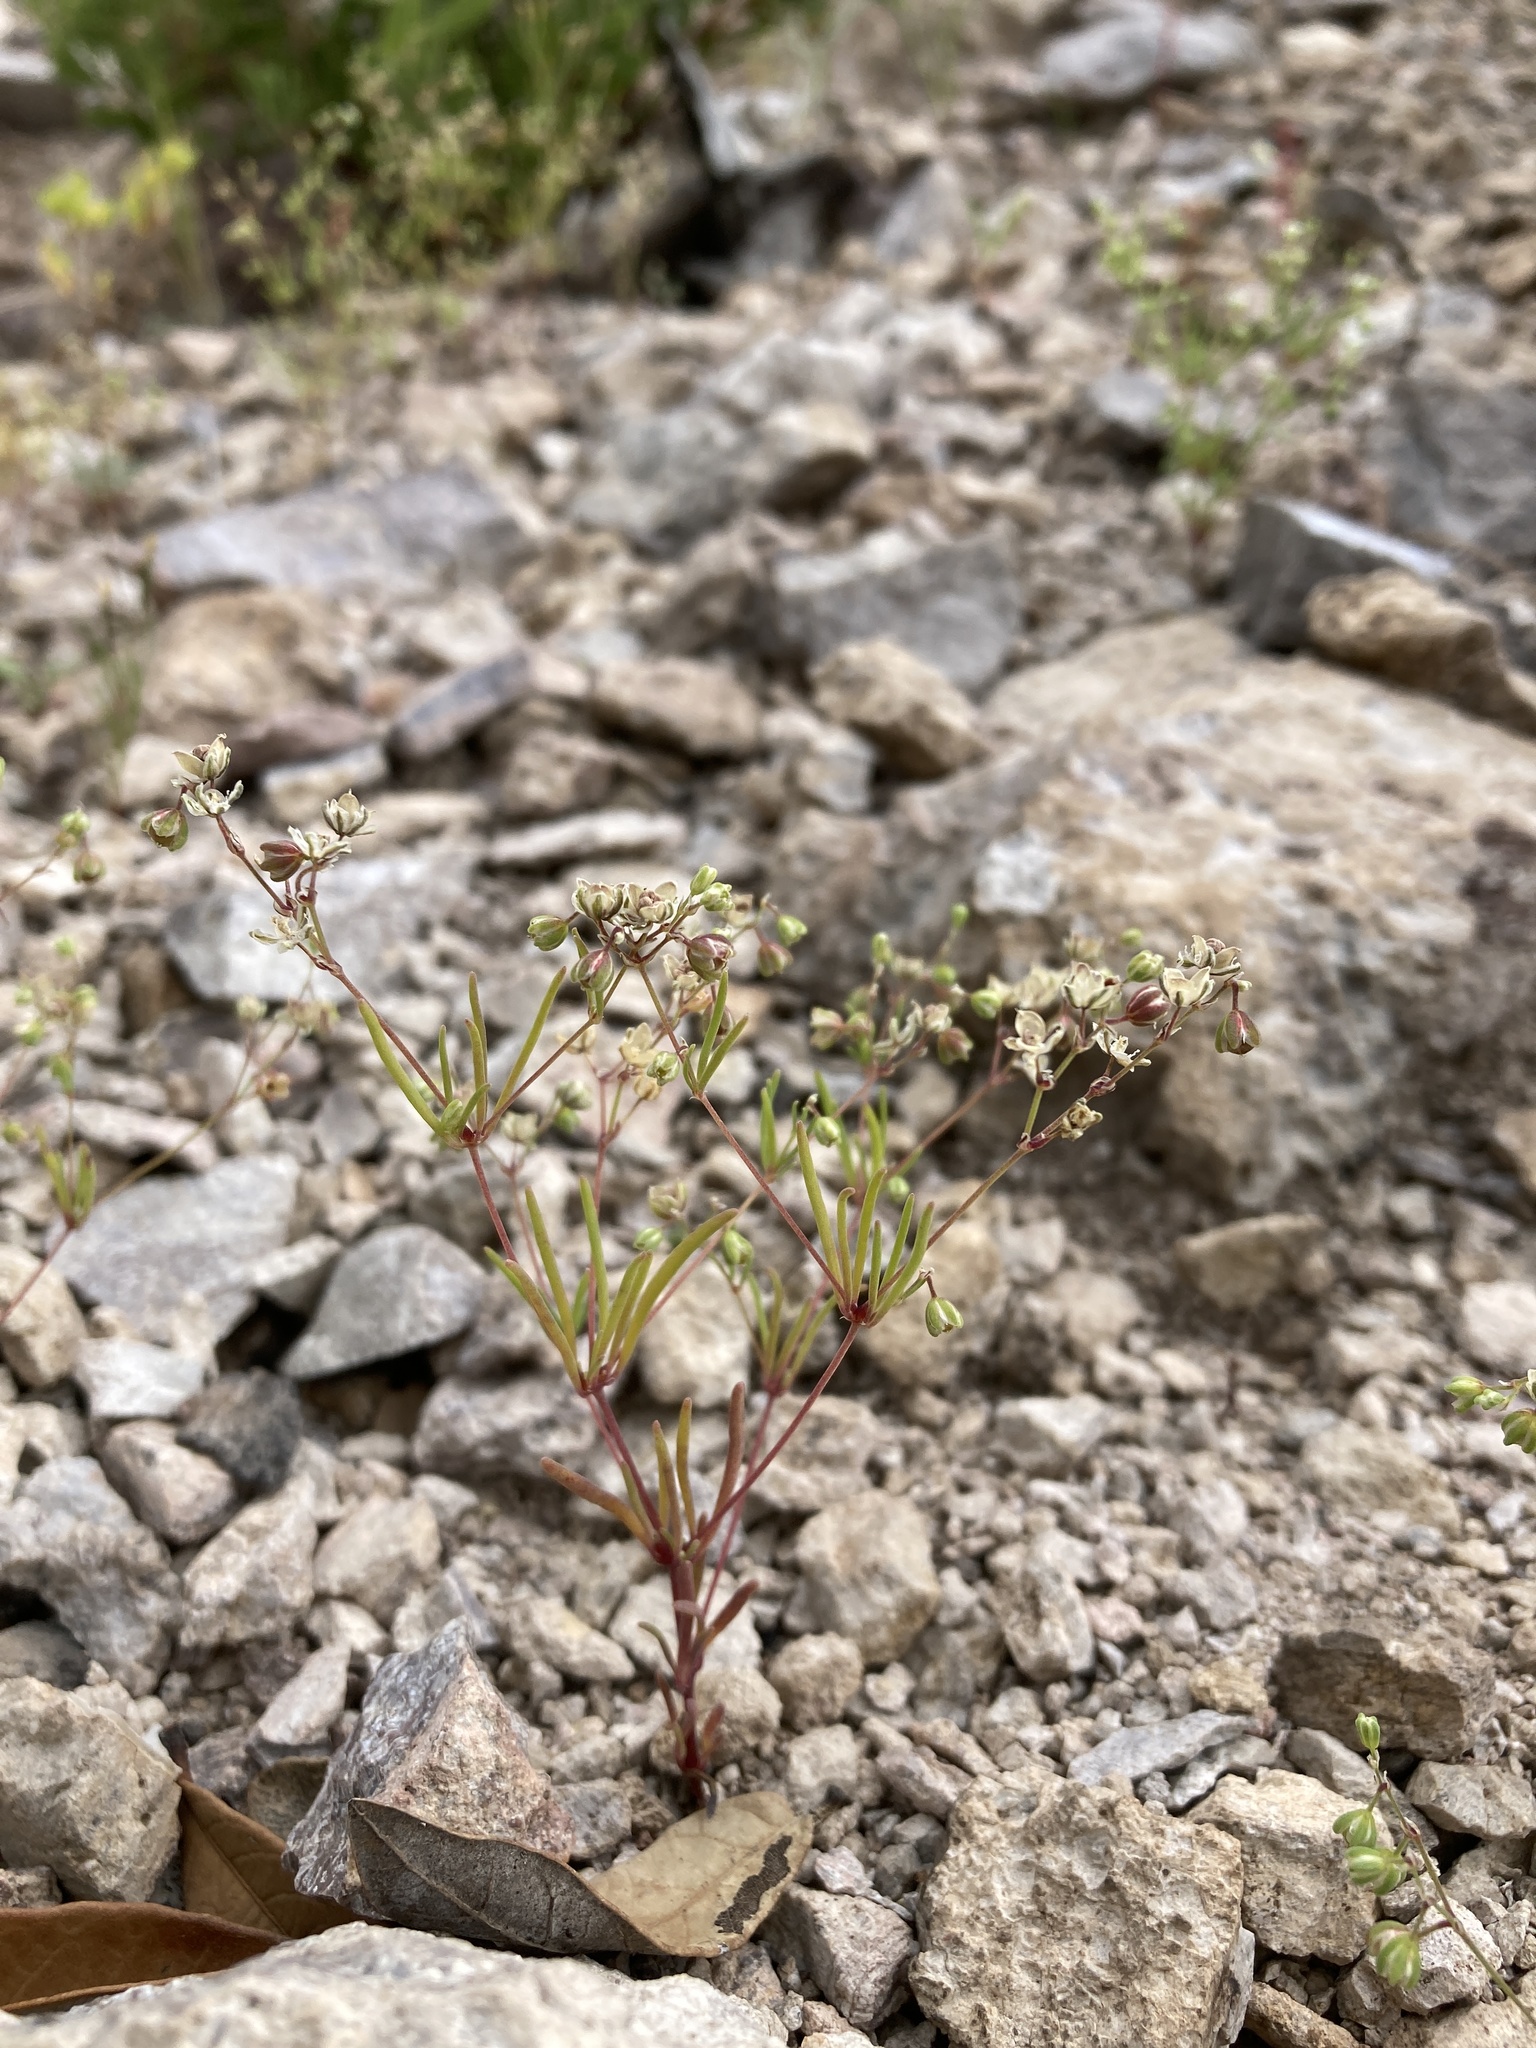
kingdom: Plantae
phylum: Tracheophyta
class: Magnoliopsida
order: Caryophyllales
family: Caryophyllaceae
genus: Drymaria
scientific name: Drymaria molluginea
